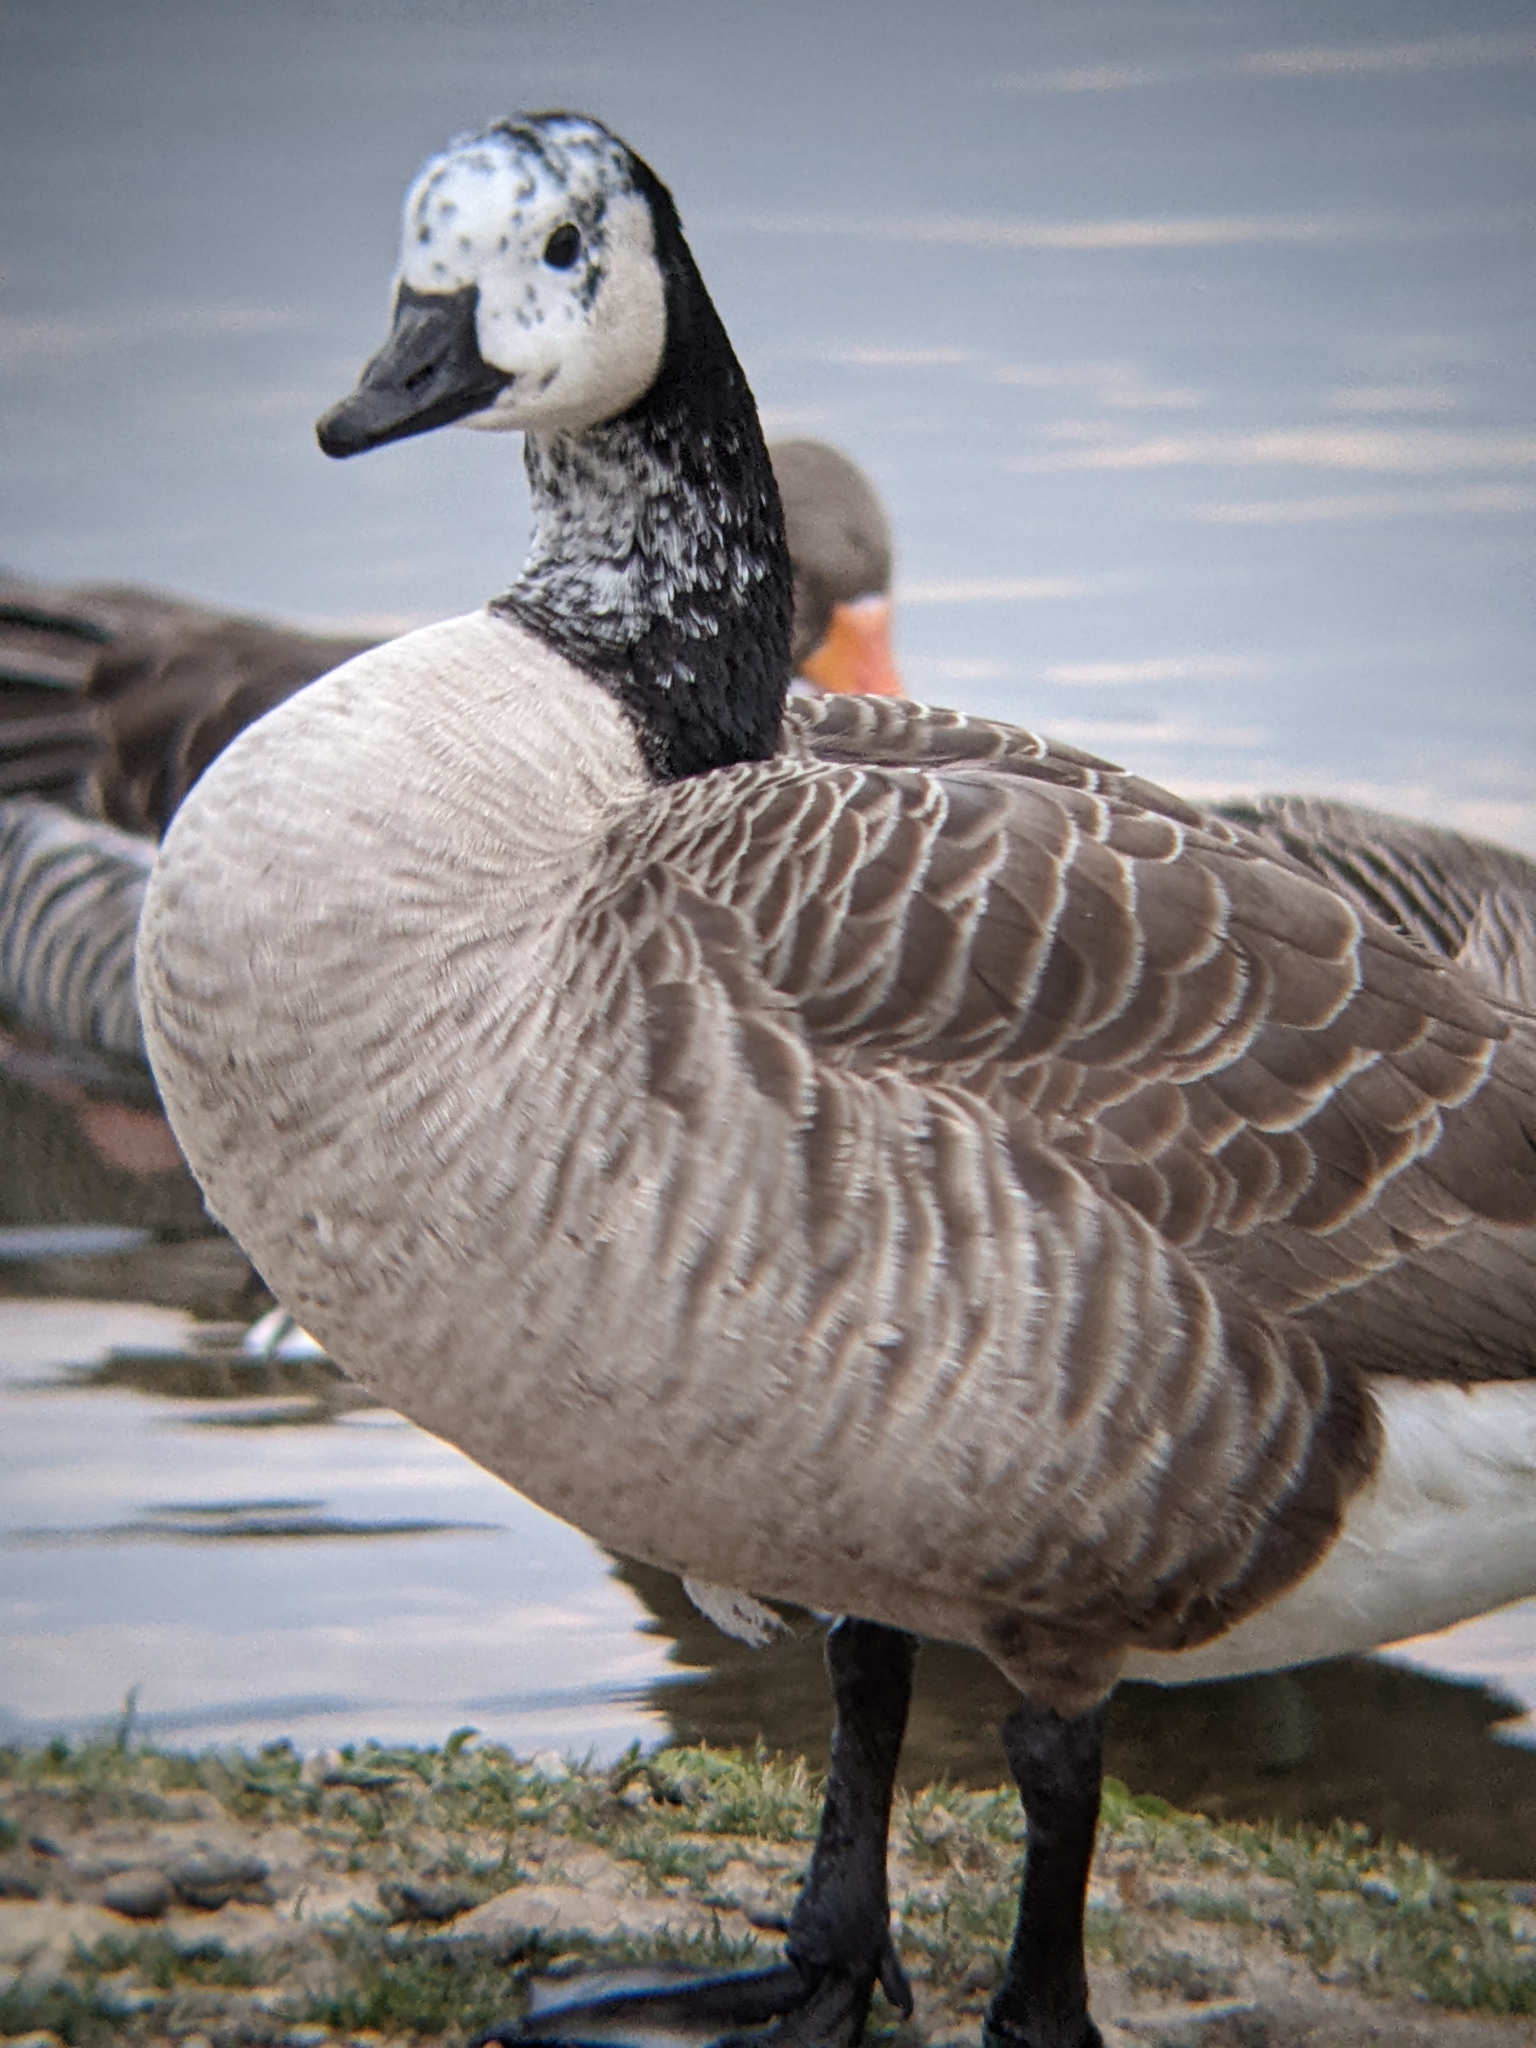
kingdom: Animalia
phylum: Chordata
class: Aves
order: Anseriformes
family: Anatidae
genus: Branta
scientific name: Branta canadensis
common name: Canada goose
